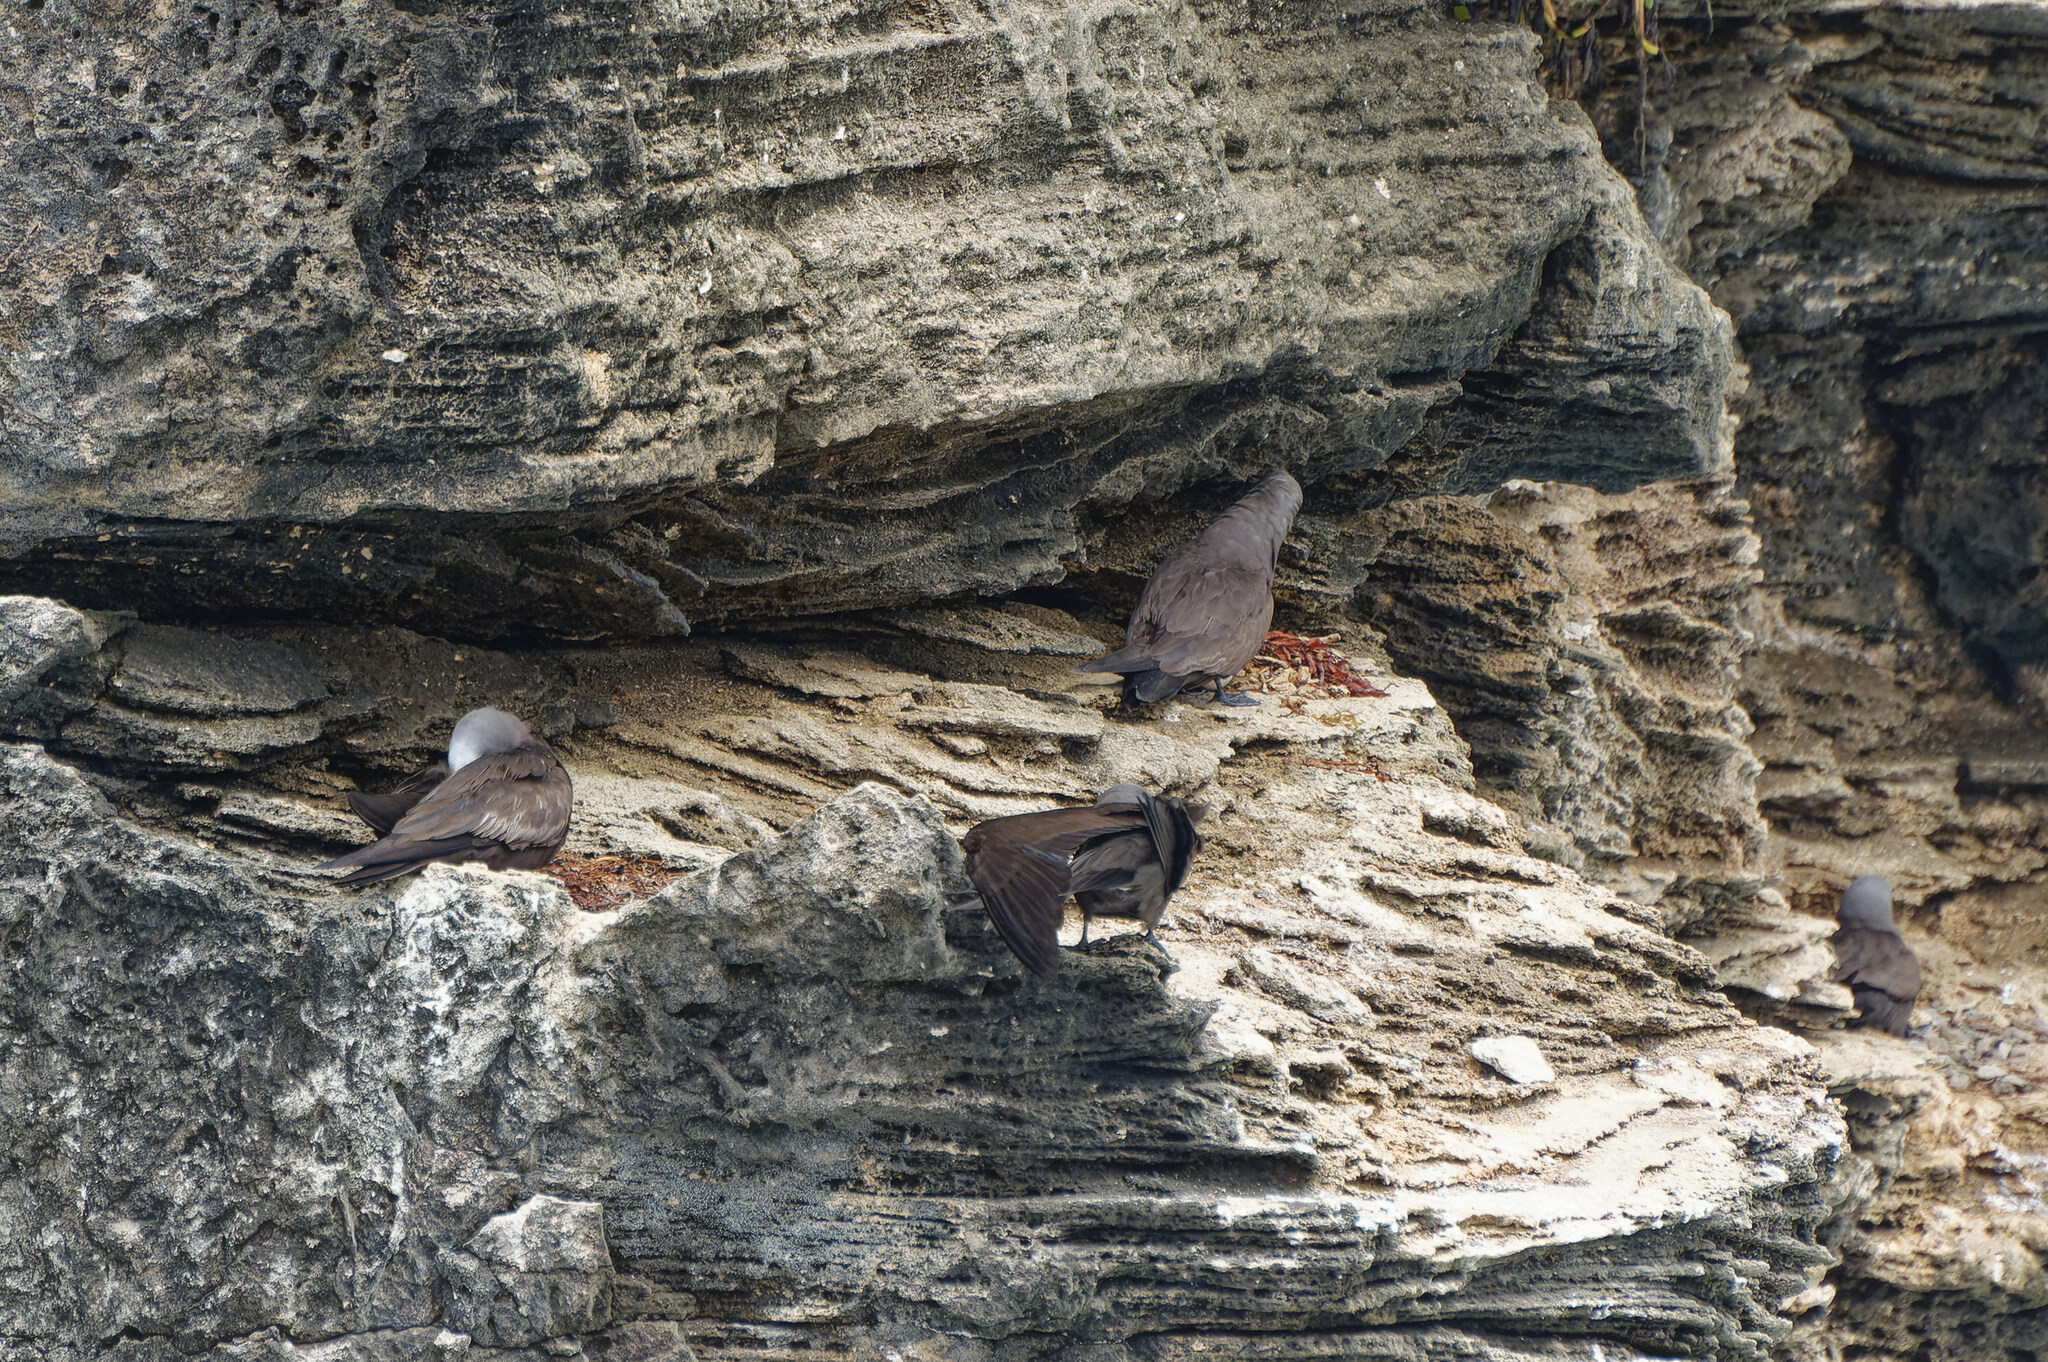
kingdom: Animalia
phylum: Chordata
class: Aves
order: Charadriiformes
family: Laridae
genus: Anous
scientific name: Anous stolidus
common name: Brown noddy
